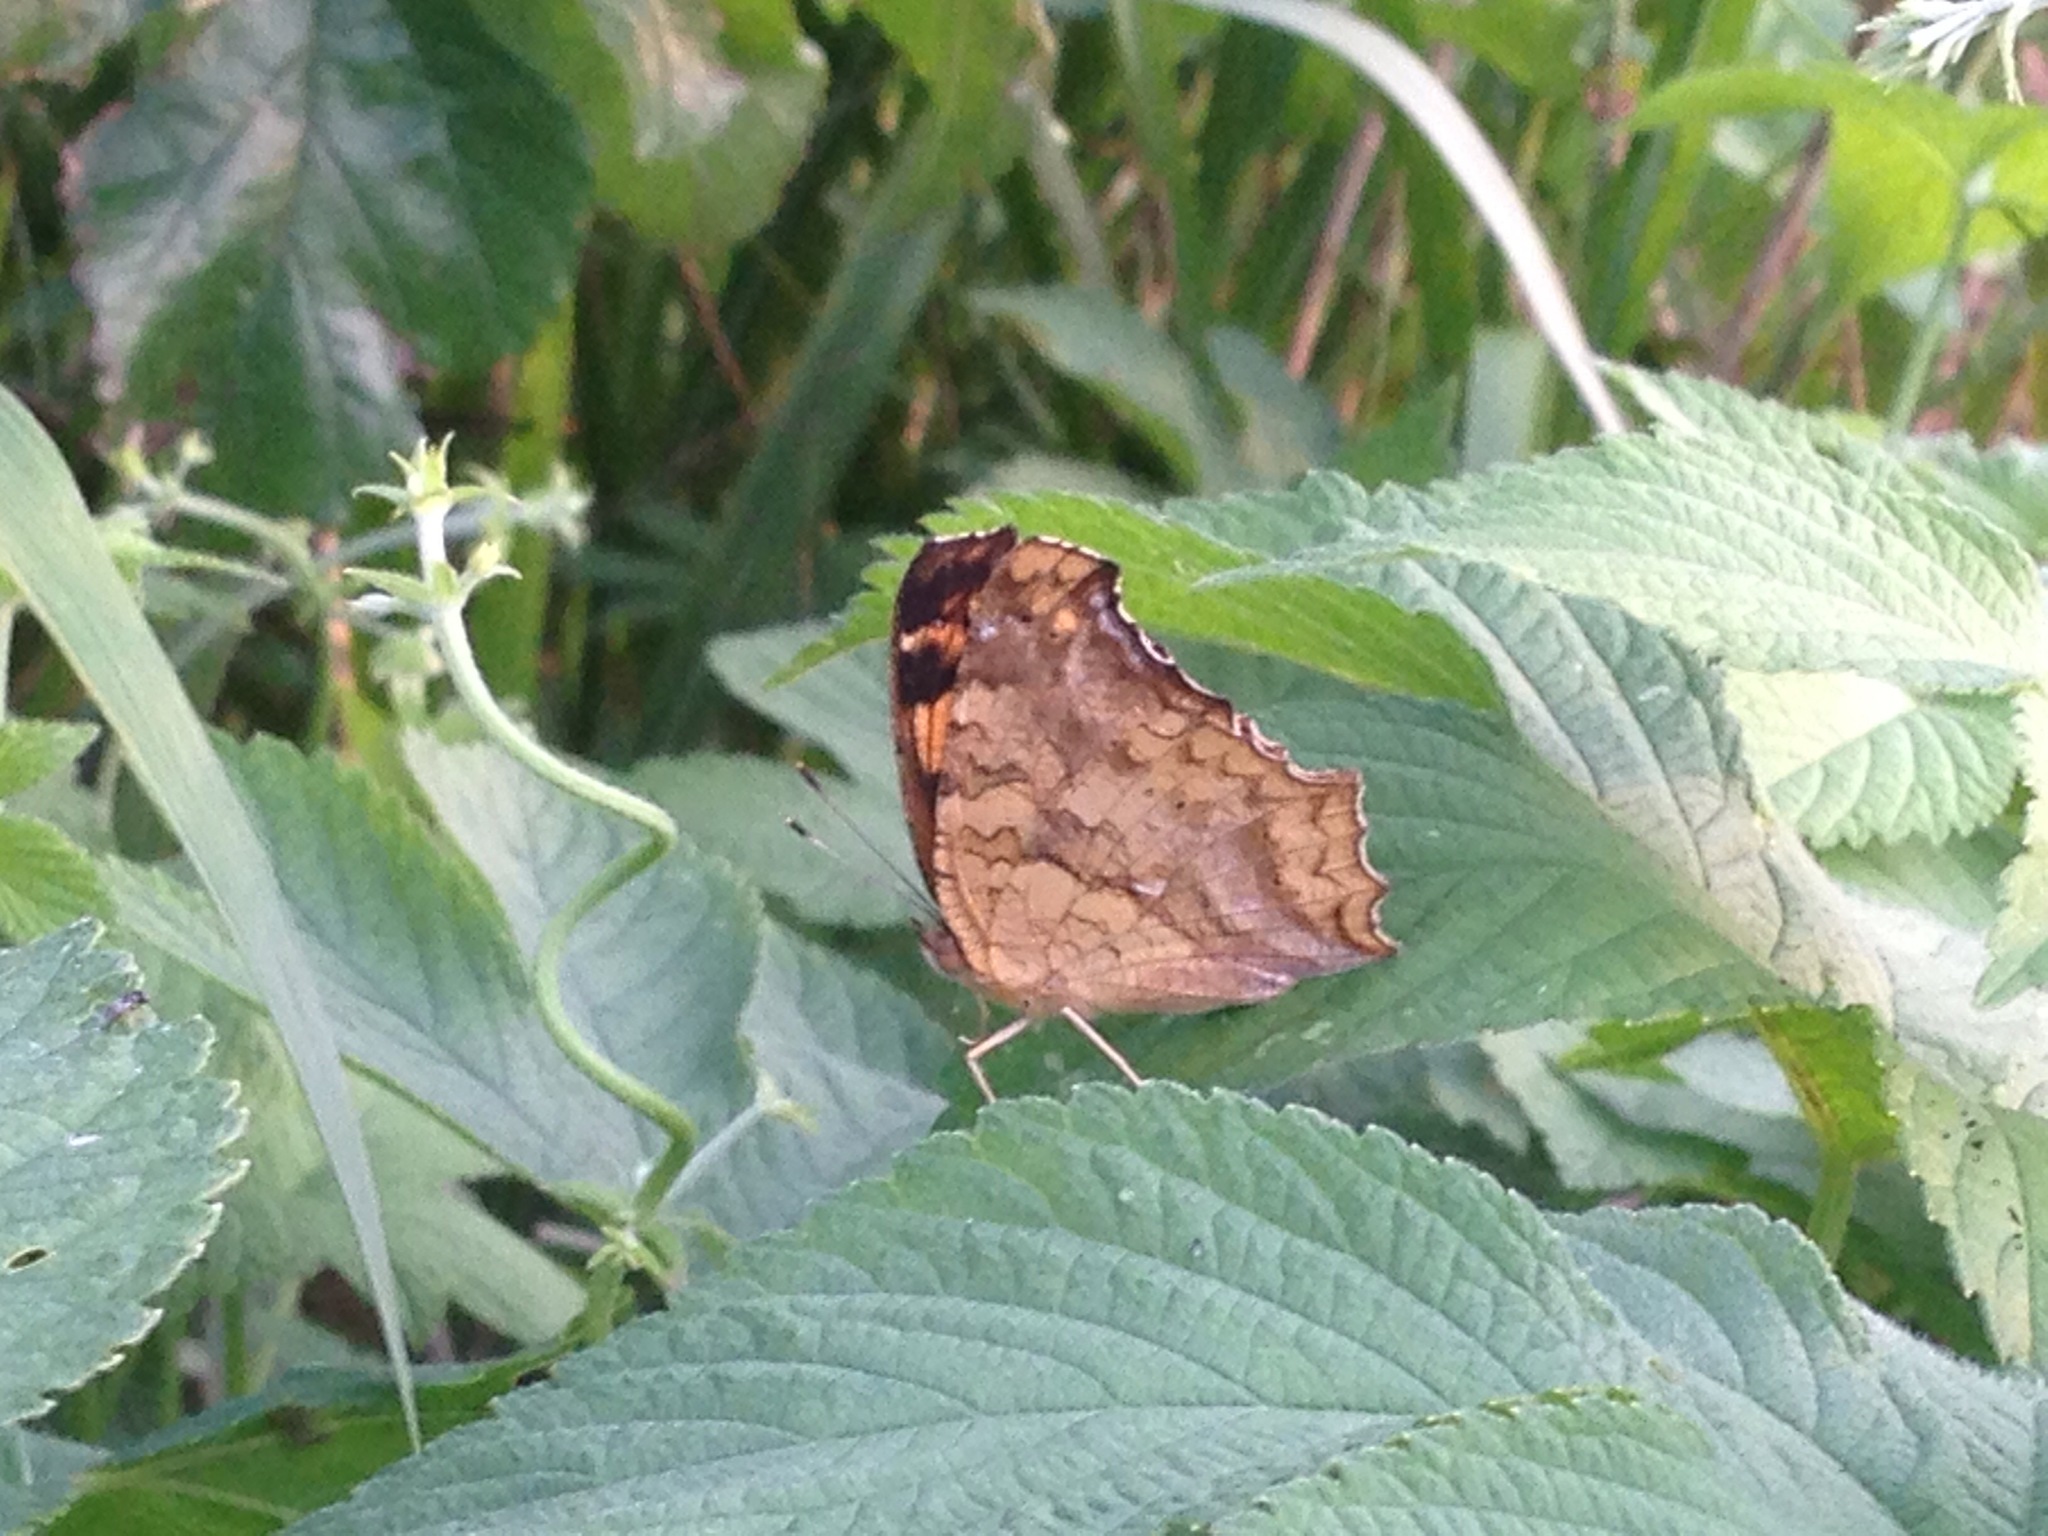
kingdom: Animalia
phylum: Arthropoda
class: Insecta
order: Lepidoptera
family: Nymphalidae
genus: Polygonia
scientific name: Polygonia c-aureum
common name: Asian comma
